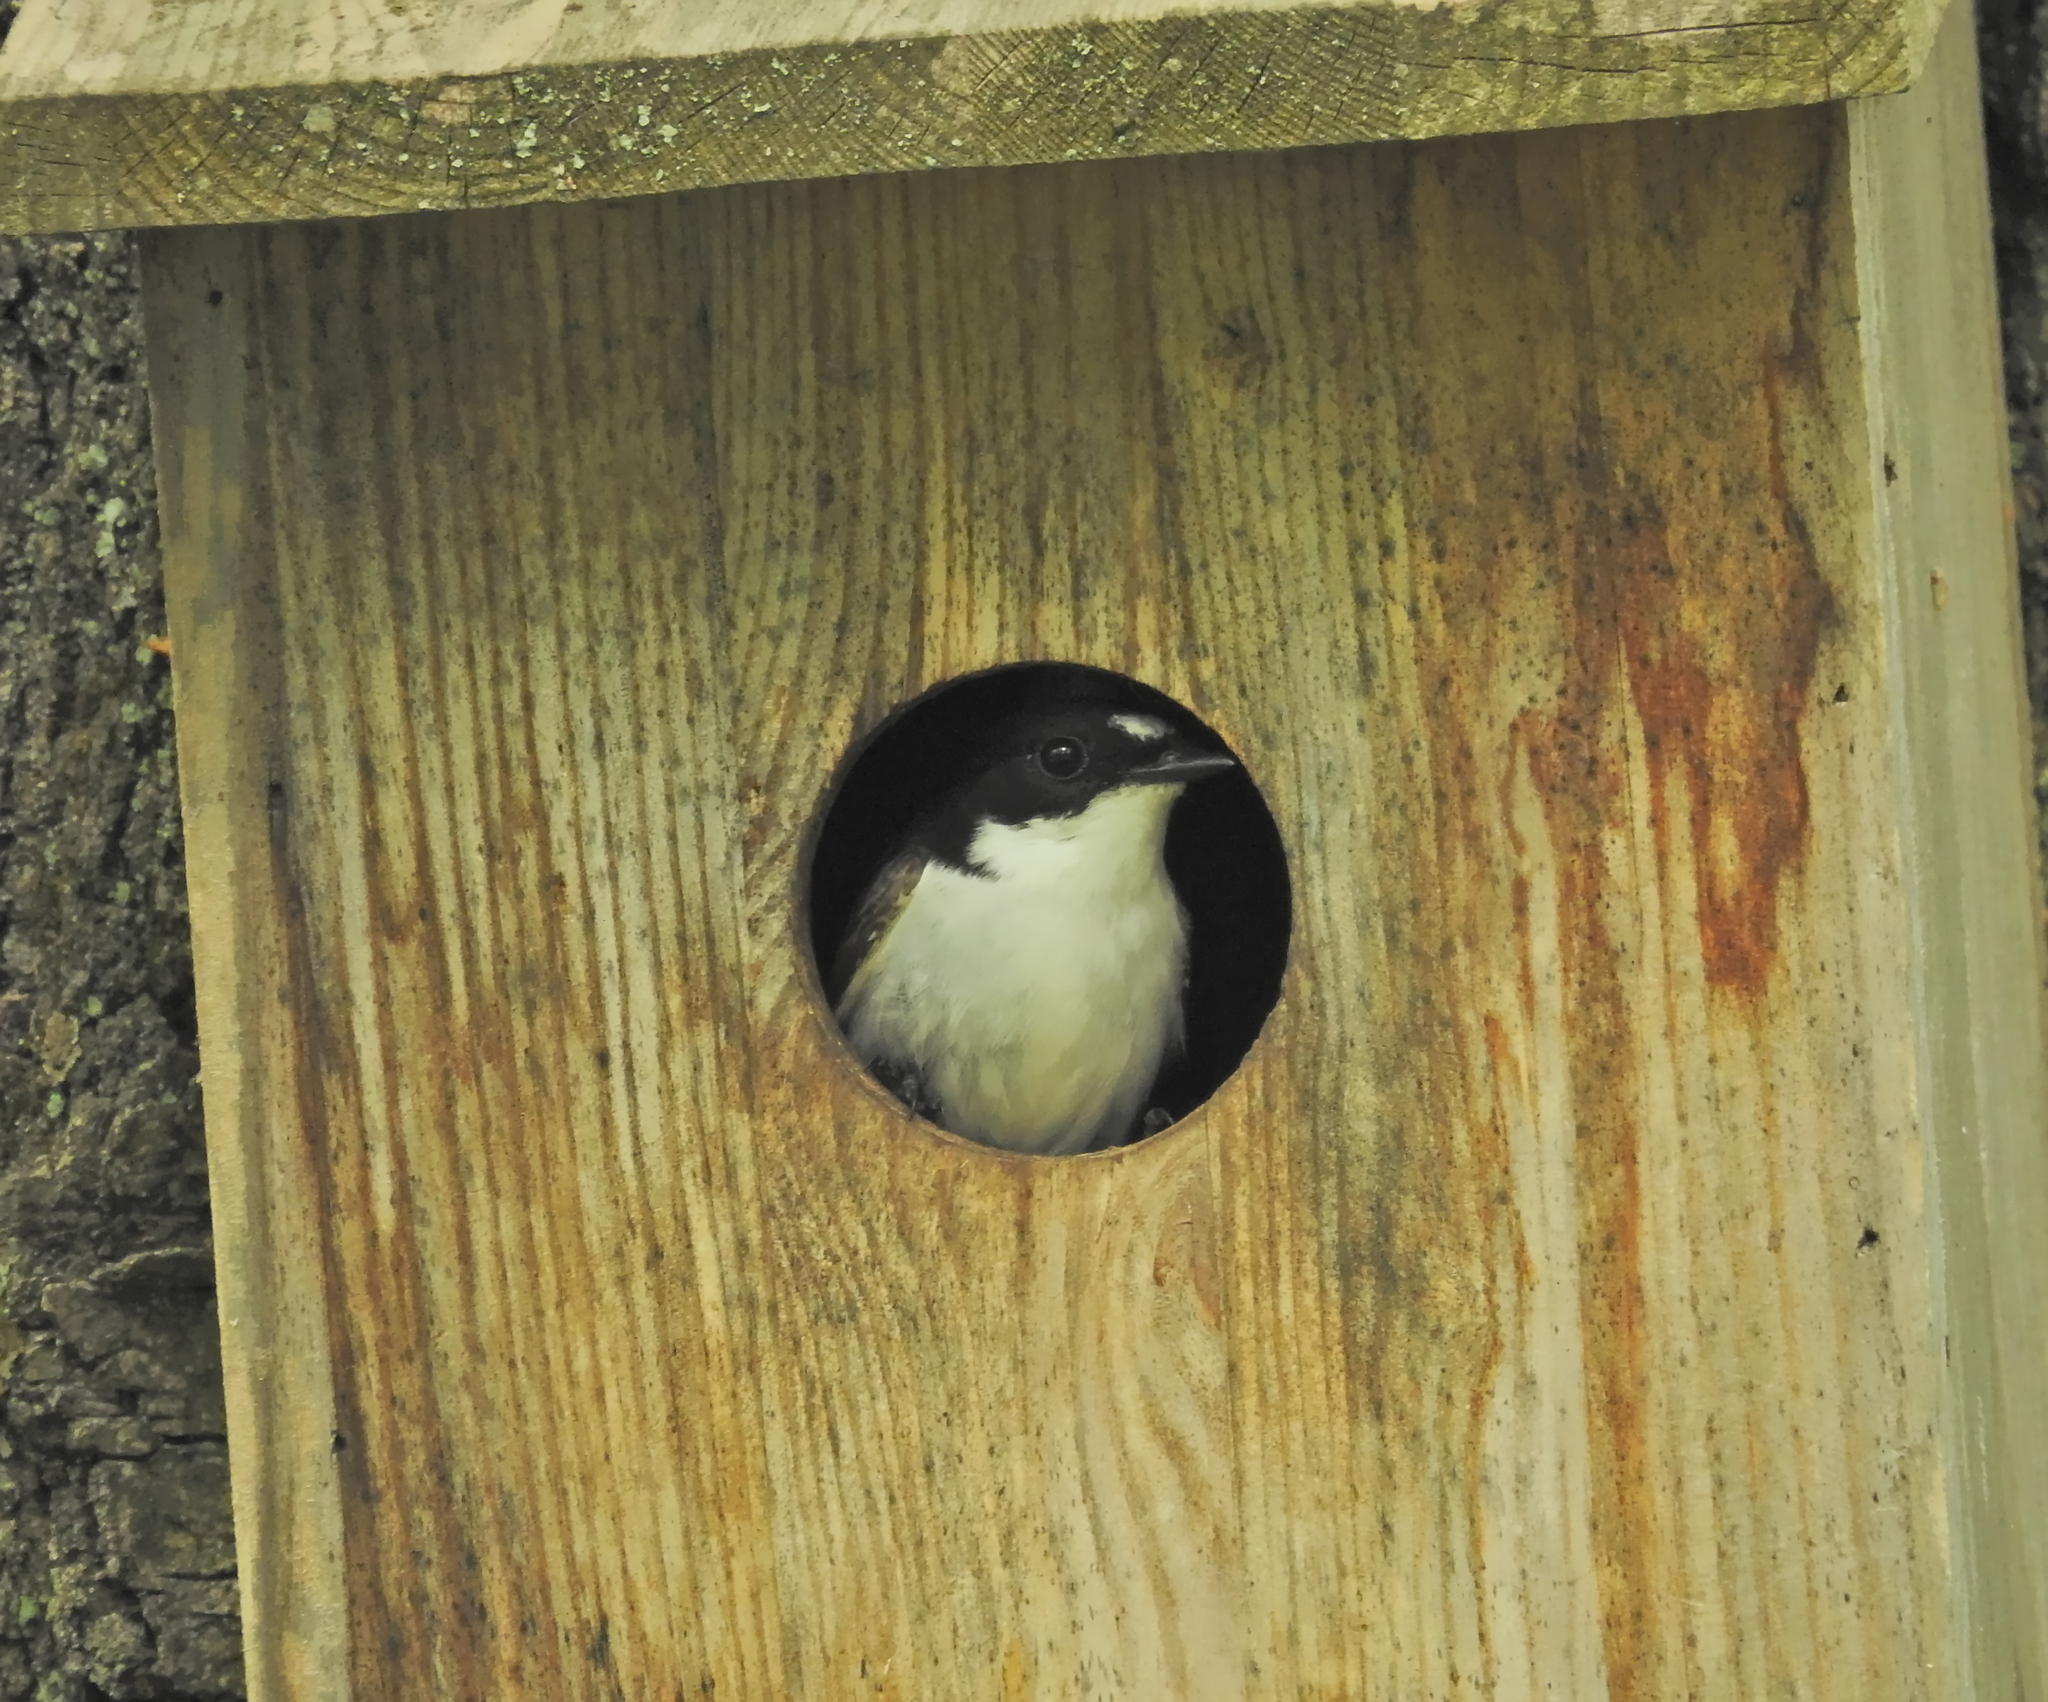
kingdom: Animalia
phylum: Chordata
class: Aves
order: Passeriformes
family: Muscicapidae
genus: Ficedula
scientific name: Ficedula hypoleuca
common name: European pied flycatcher
